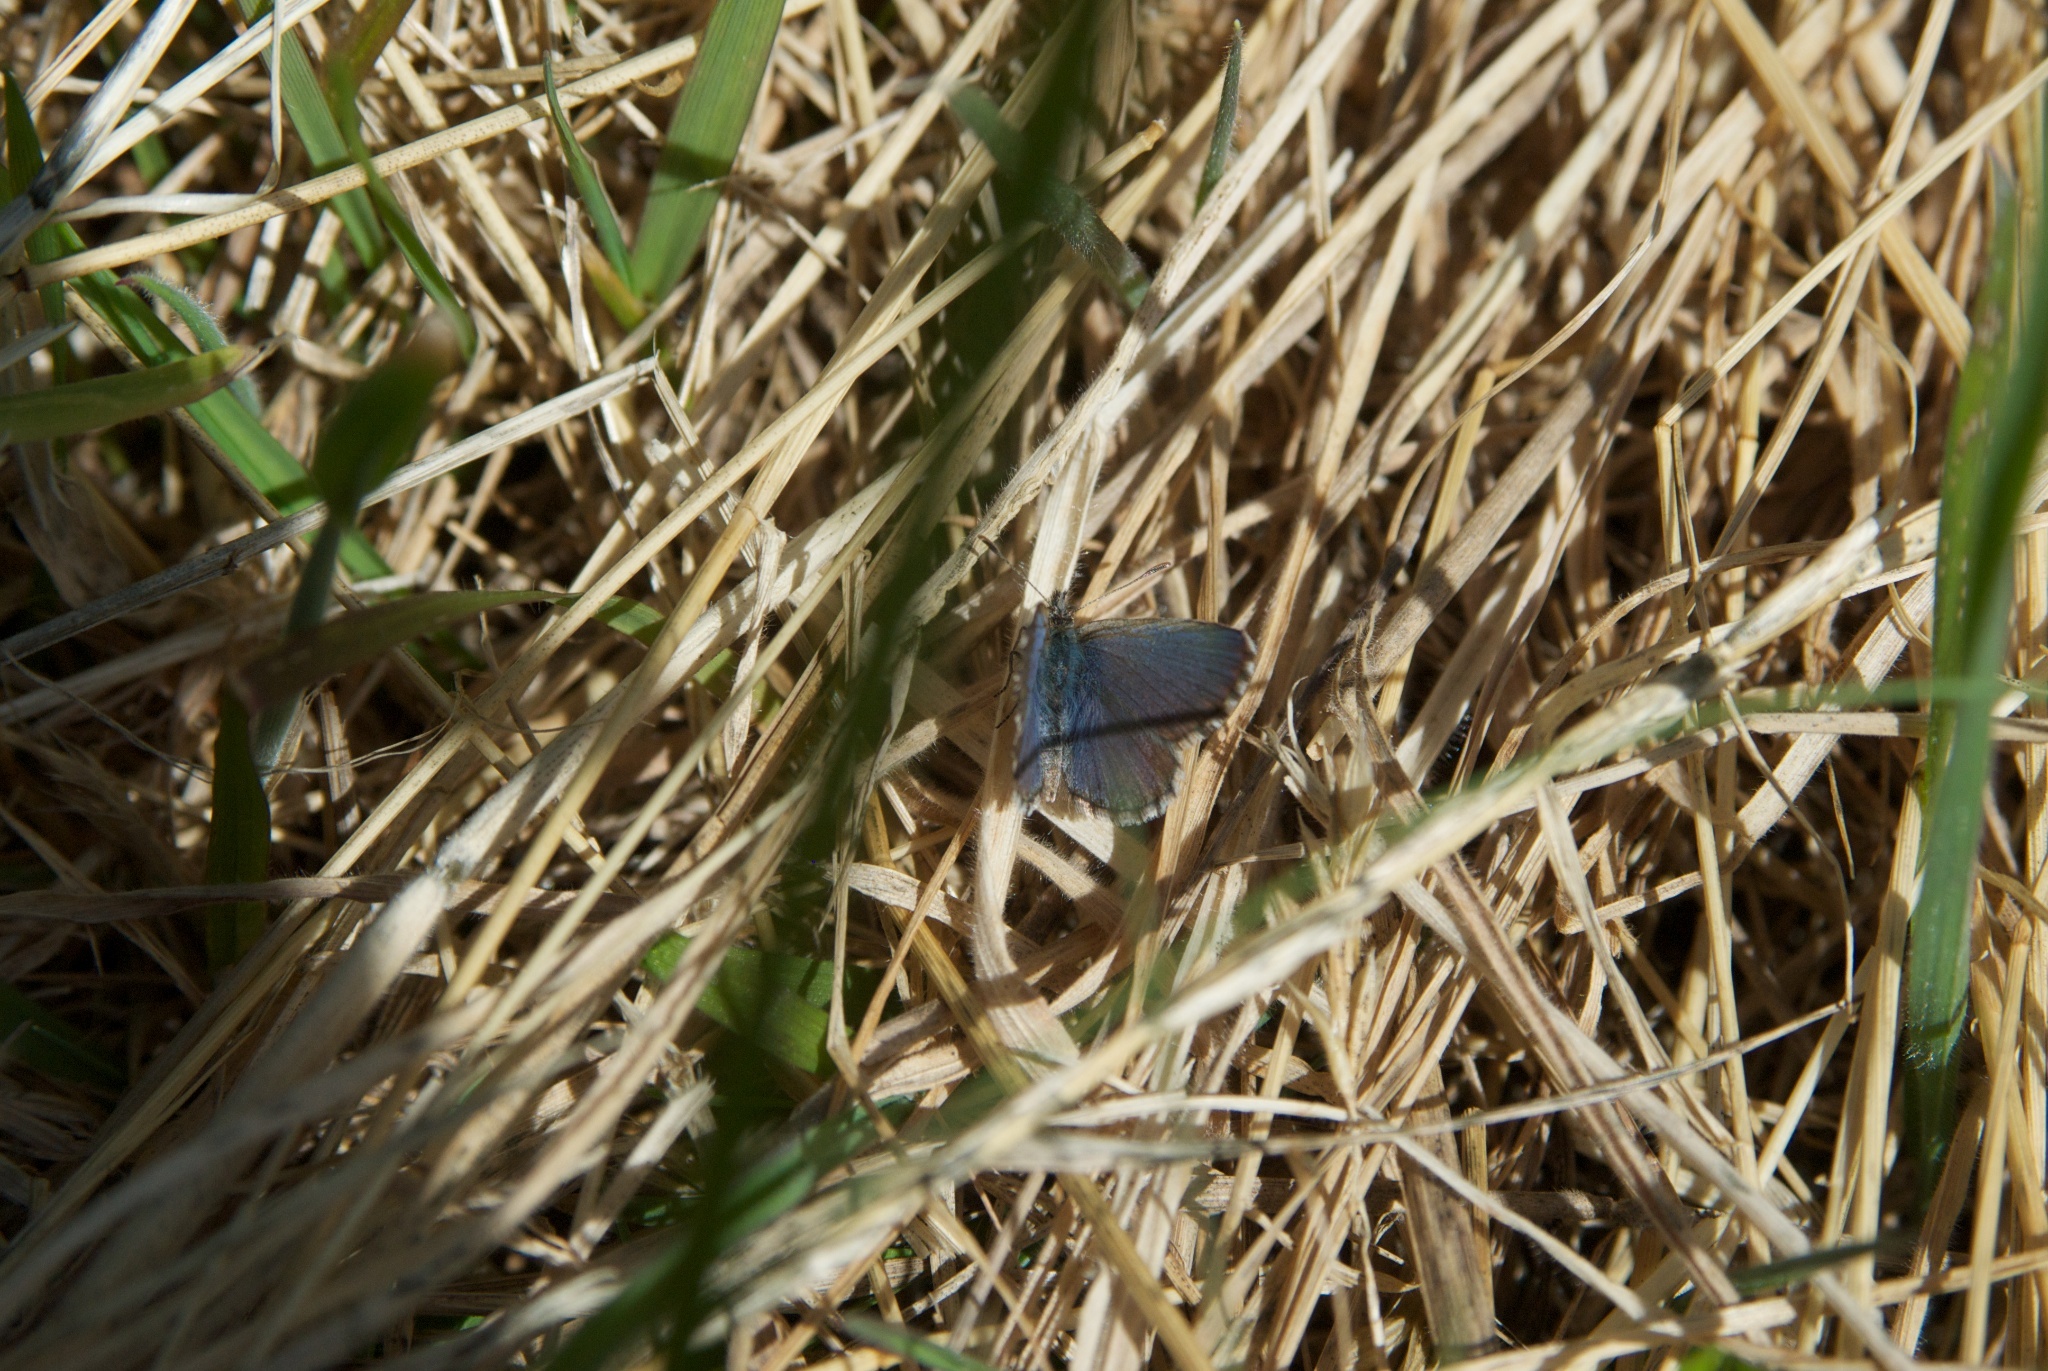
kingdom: Animalia
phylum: Arthropoda
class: Insecta
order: Lepidoptera
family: Lycaenidae
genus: Zizina
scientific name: Zizina oxleyi
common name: Southern blue
